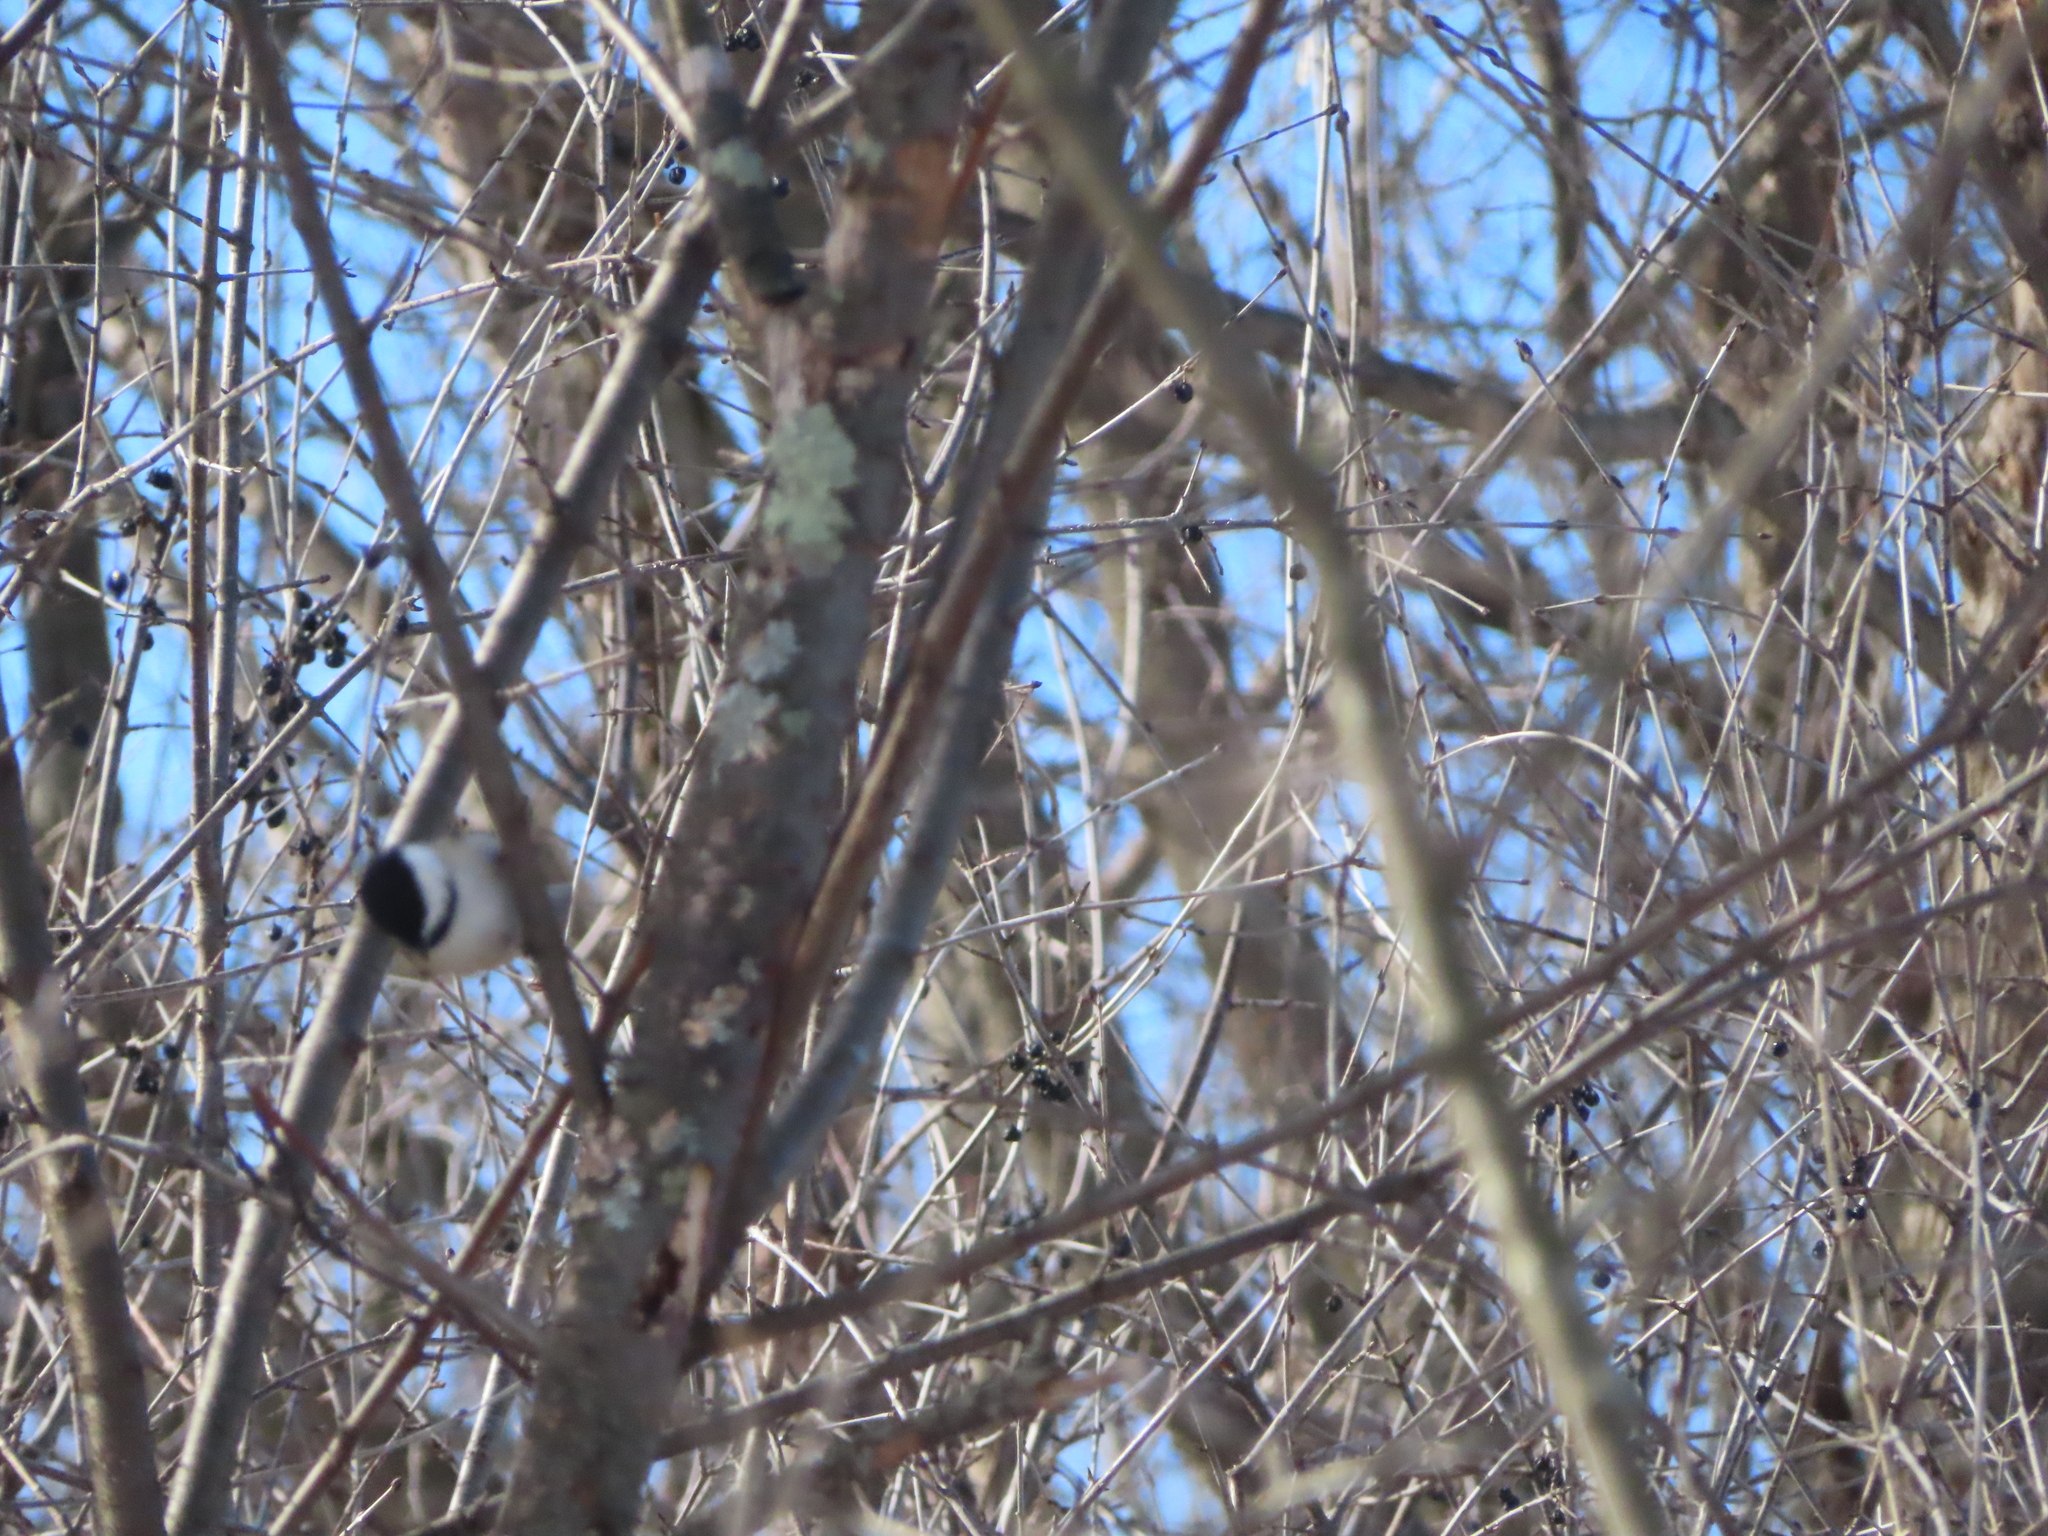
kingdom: Animalia
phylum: Chordata
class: Aves
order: Passeriformes
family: Paridae
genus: Poecile
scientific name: Poecile atricapillus
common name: Black-capped chickadee
